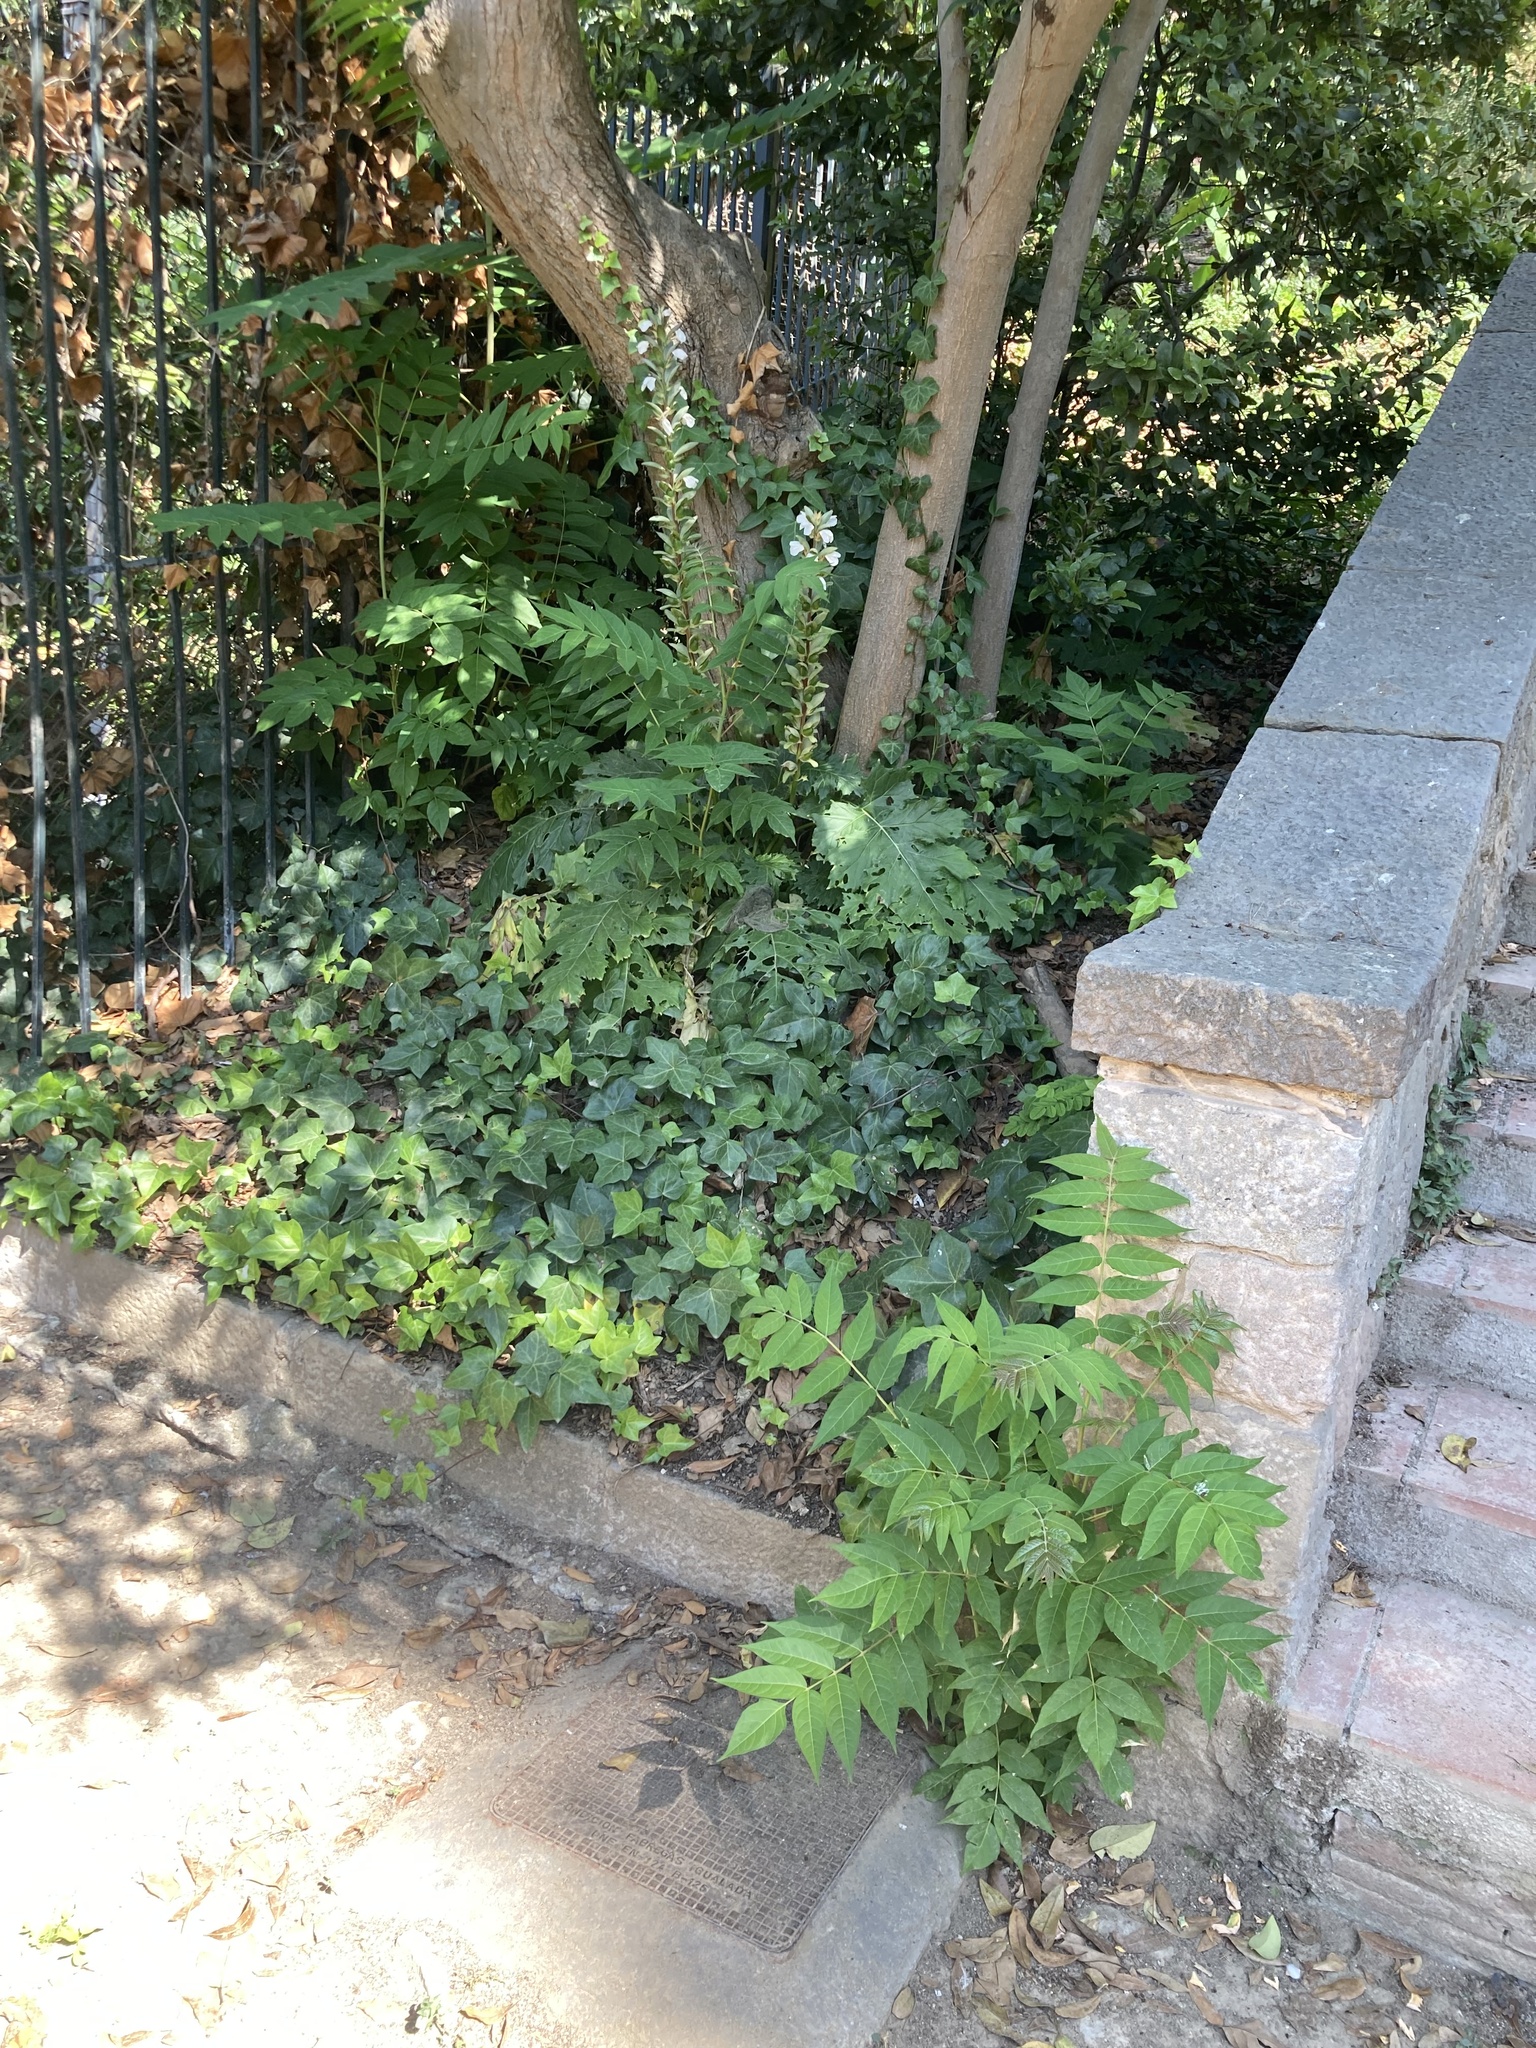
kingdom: Plantae
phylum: Tracheophyta
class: Magnoliopsida
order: Sapindales
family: Simaroubaceae
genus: Ailanthus
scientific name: Ailanthus altissima
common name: Tree-of-heaven
